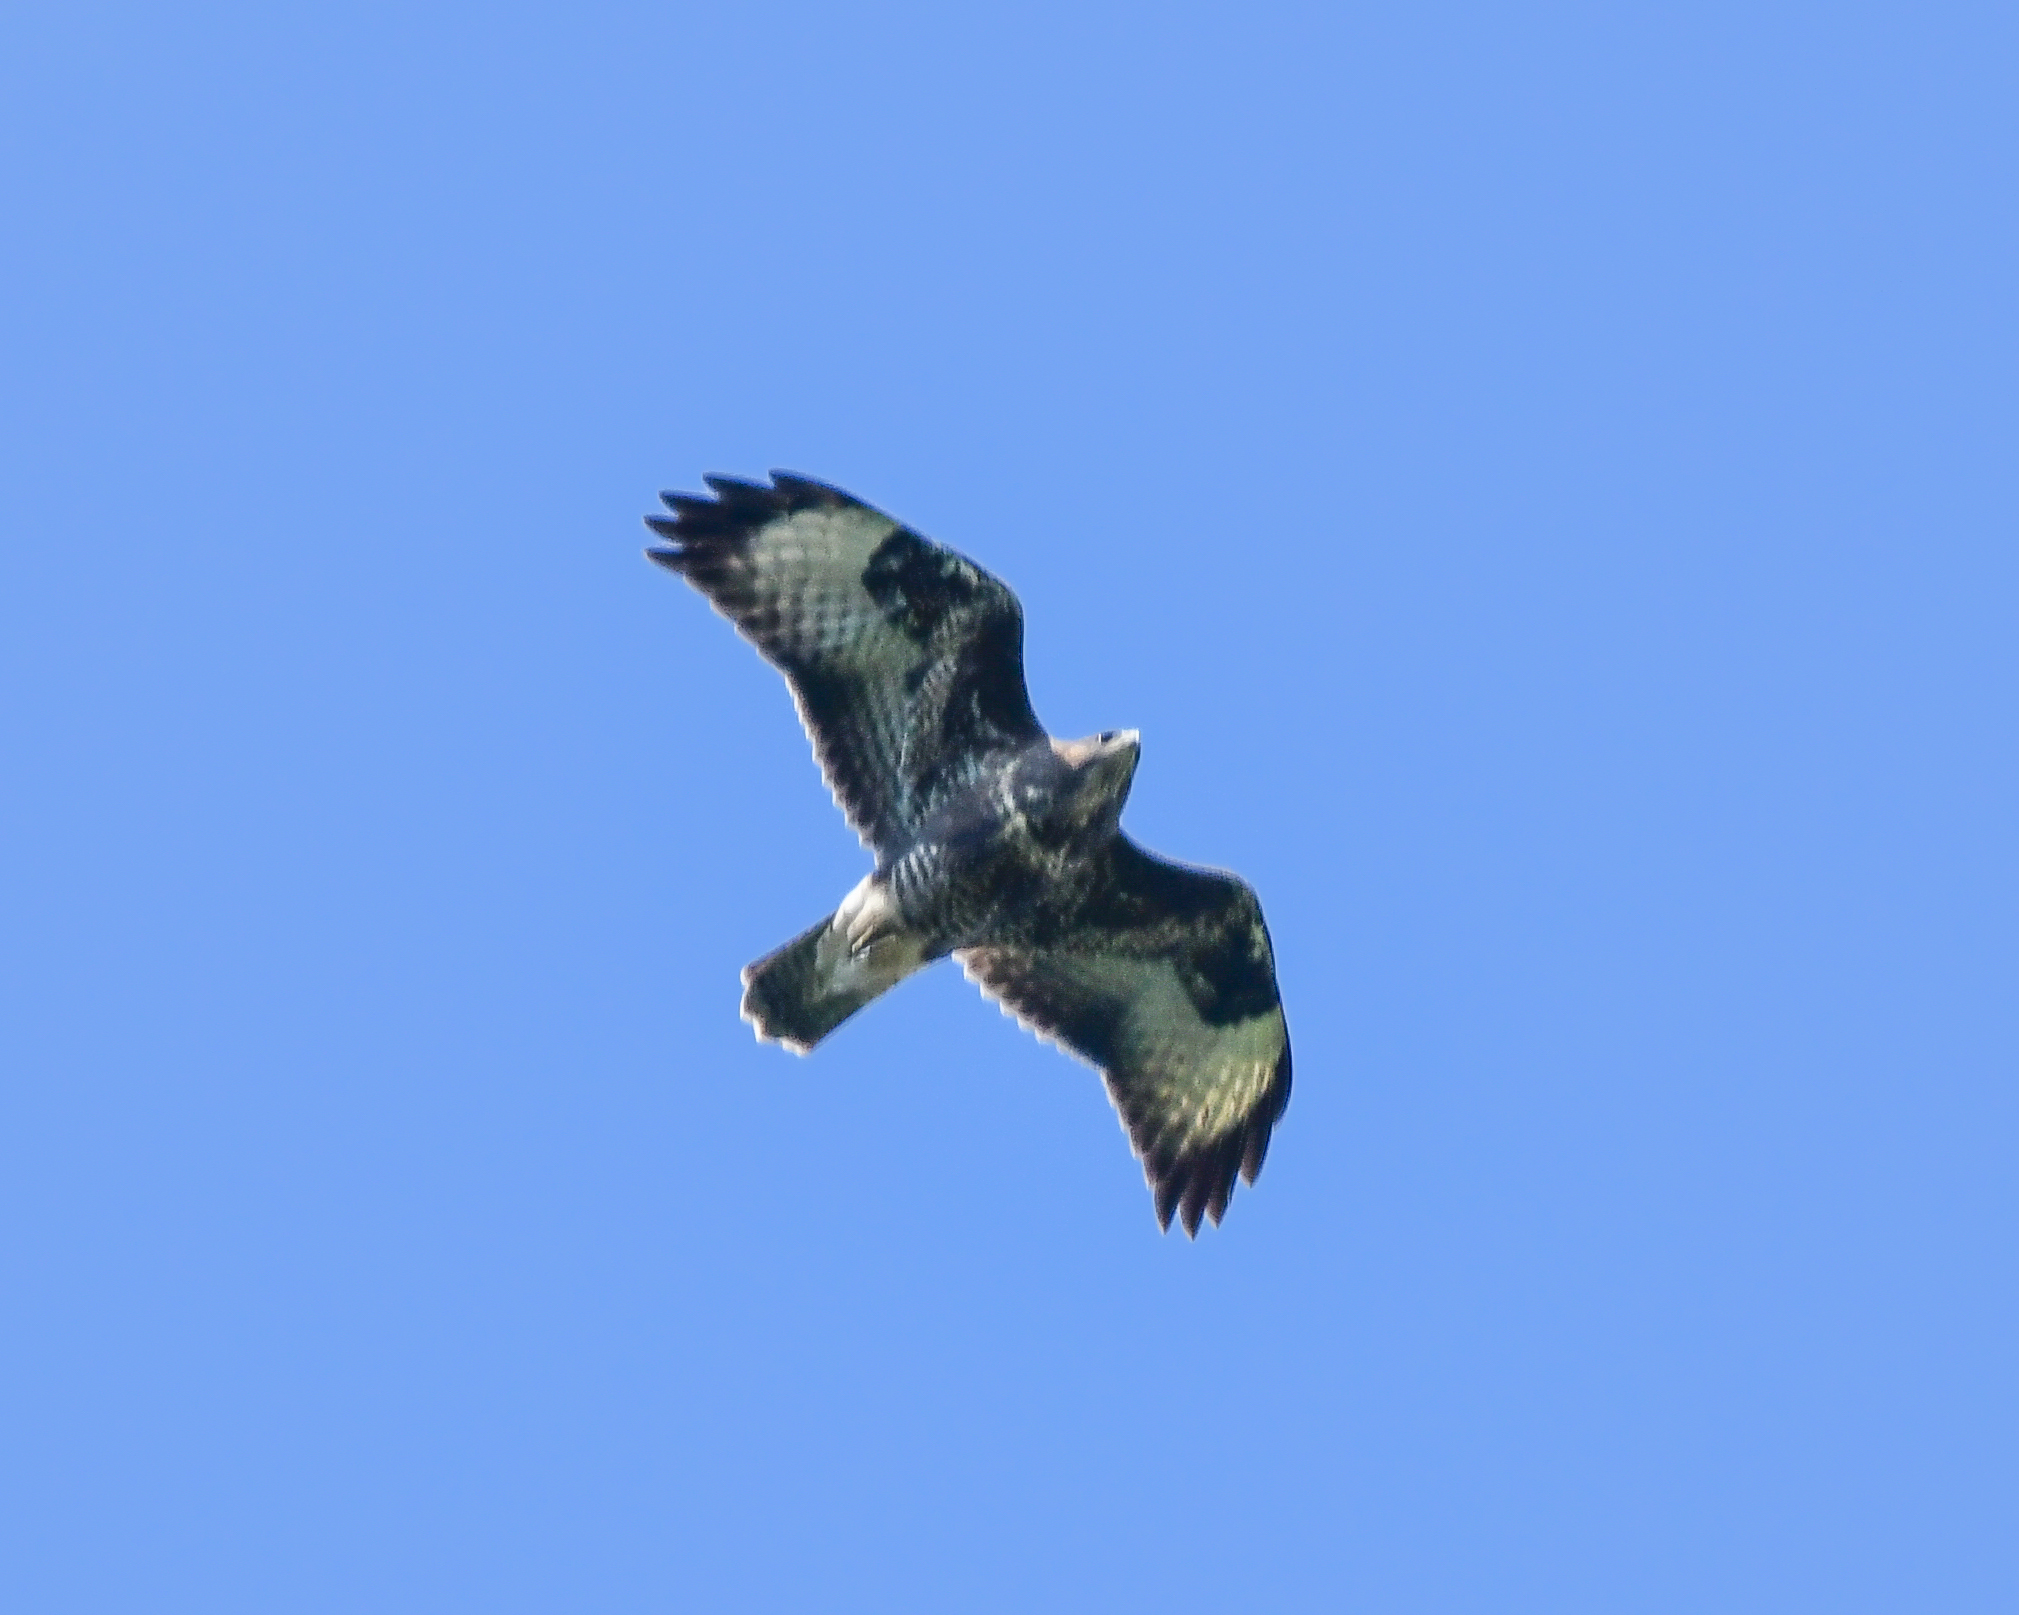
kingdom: Animalia
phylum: Chordata
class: Aves
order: Accipitriformes
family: Accipitridae
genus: Buteo
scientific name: Buteo buteo
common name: Common buzzard
